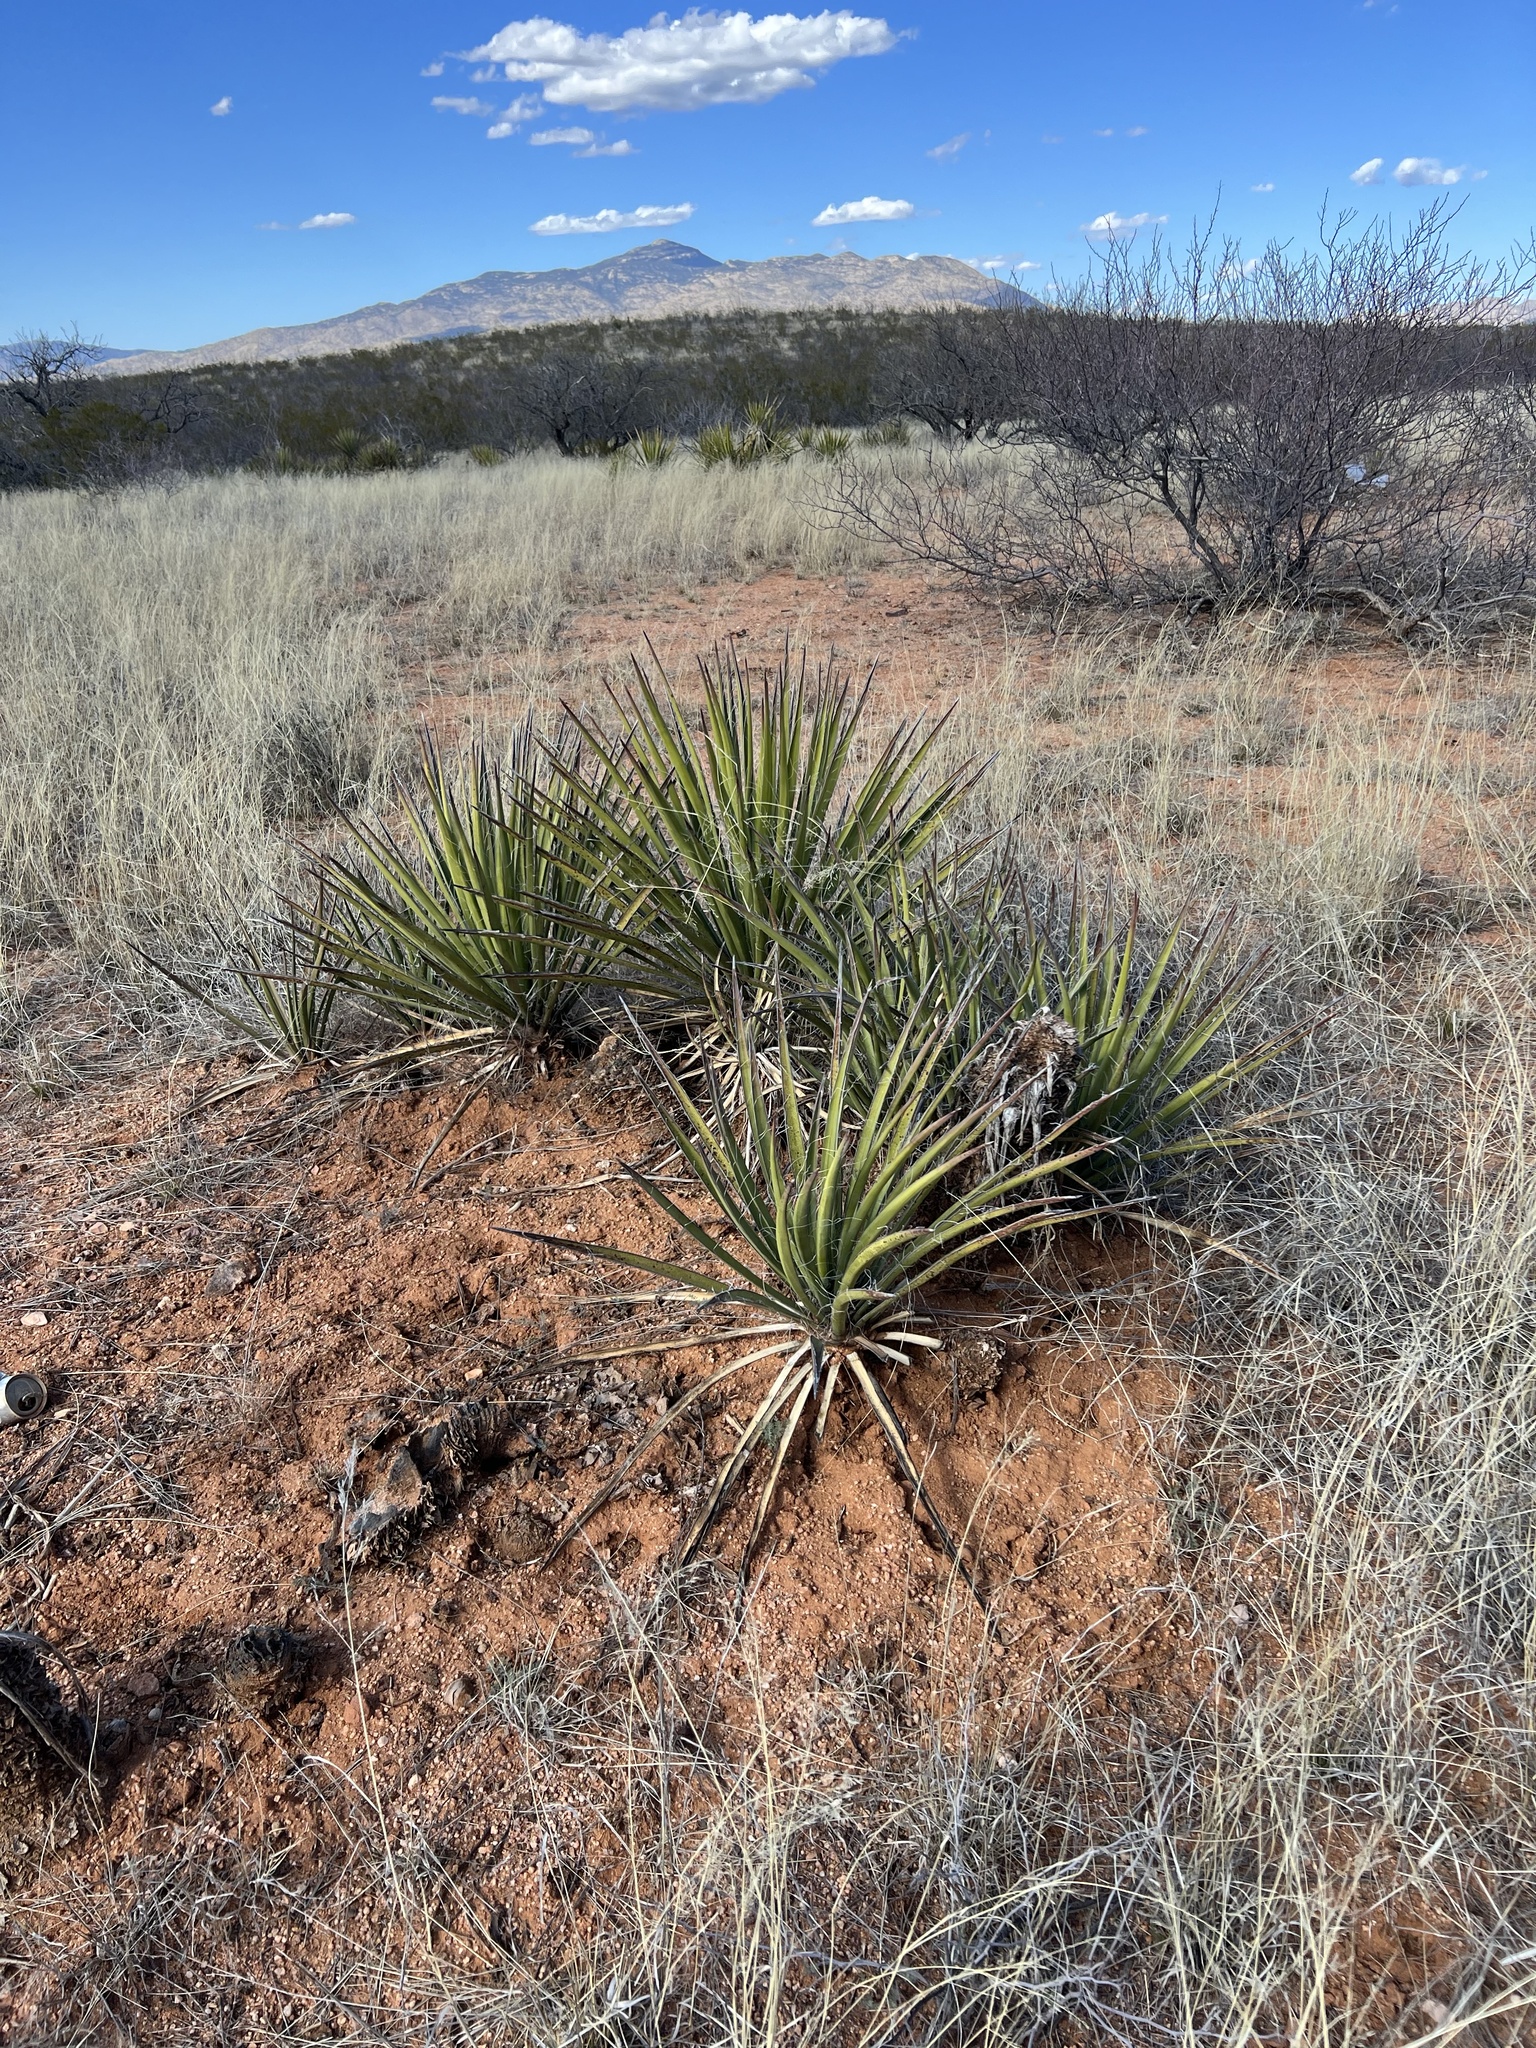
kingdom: Plantae
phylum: Tracheophyta
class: Liliopsida
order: Asparagales
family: Asparagaceae
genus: Yucca
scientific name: Yucca baccata
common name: Banana yucca
